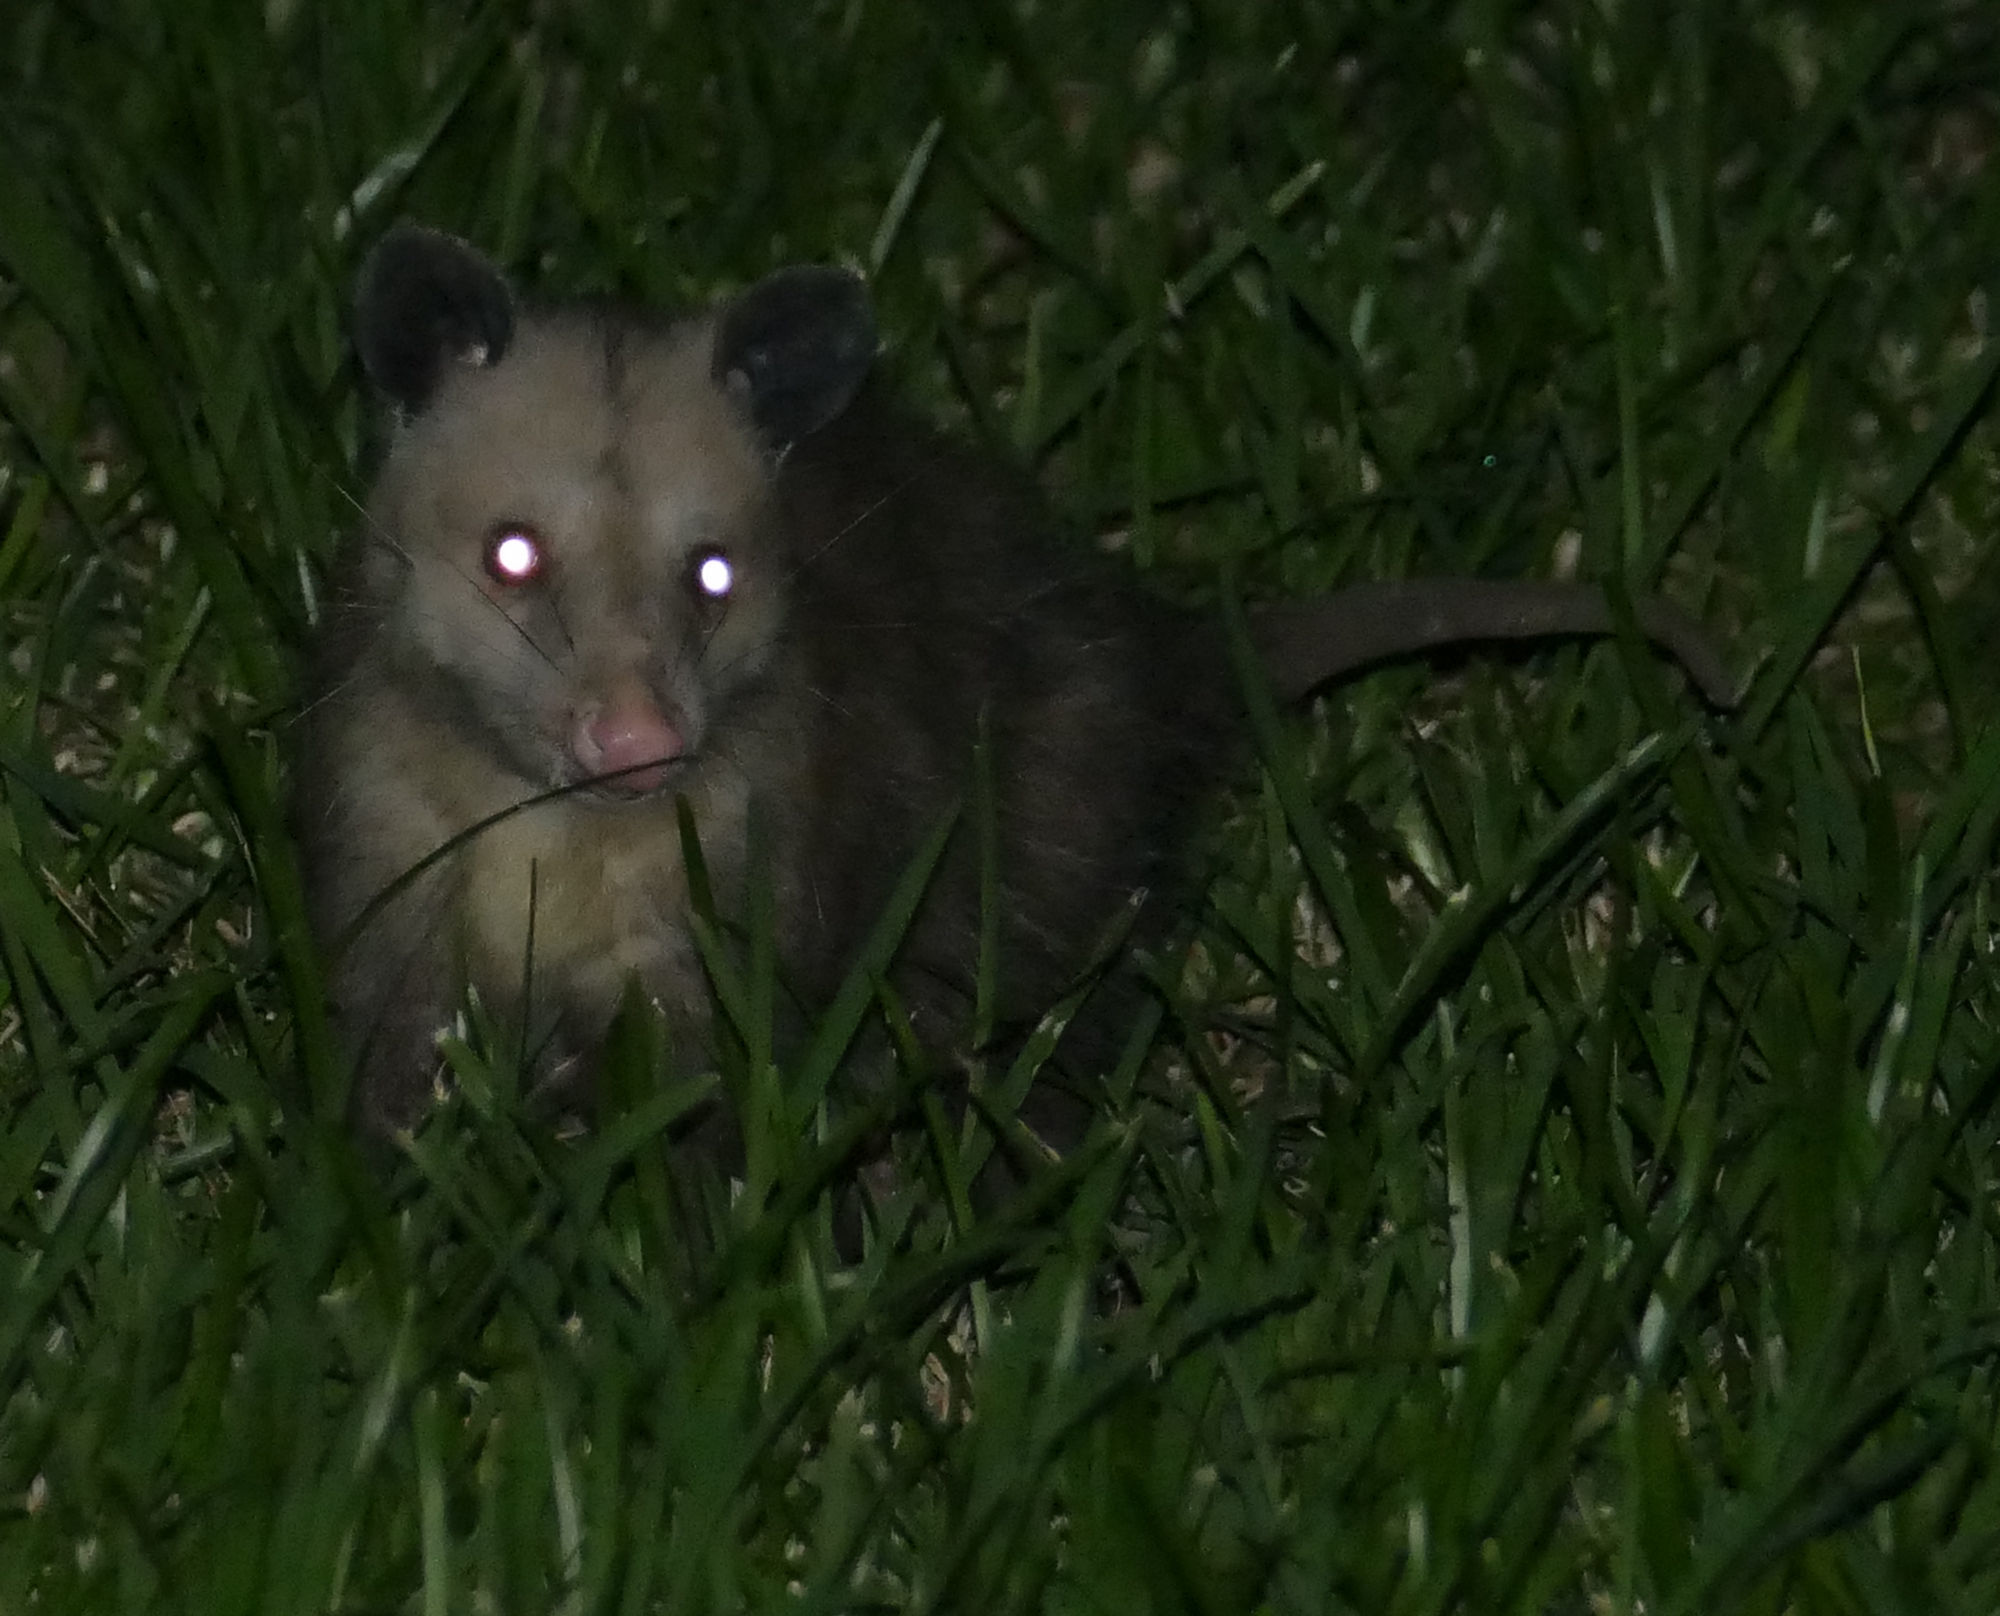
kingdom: Animalia
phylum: Chordata
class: Mammalia
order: Didelphimorphia
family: Didelphidae
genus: Didelphis
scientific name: Didelphis virginiana
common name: Virginia opossum
